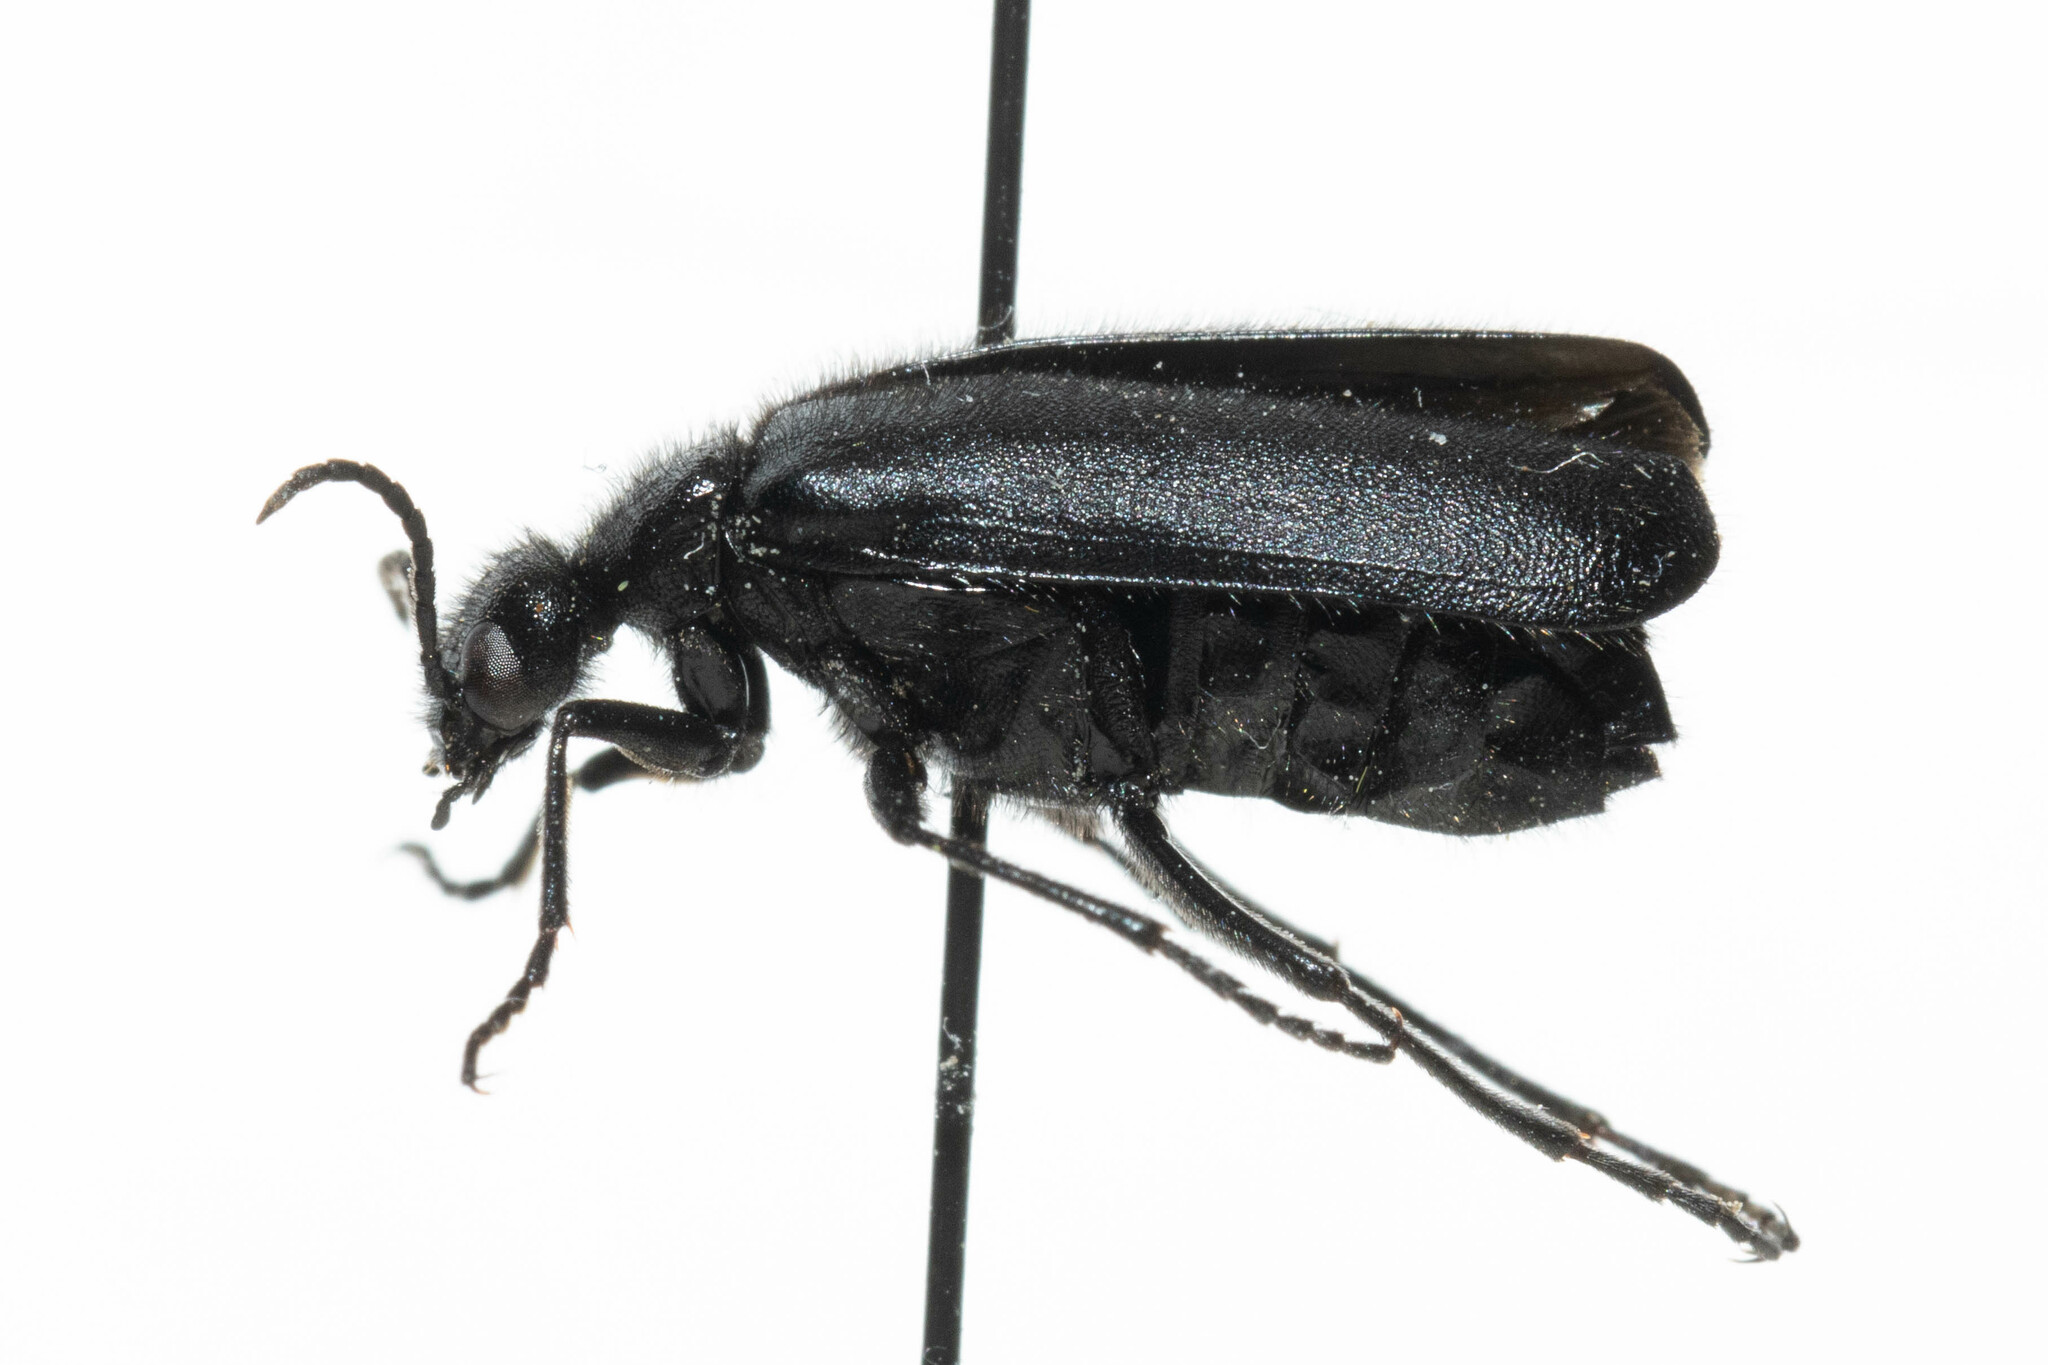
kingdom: Animalia
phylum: Arthropoda
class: Insecta
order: Coleoptera
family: Meloidae
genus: Epicauta
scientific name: Epicauta puncticollis
